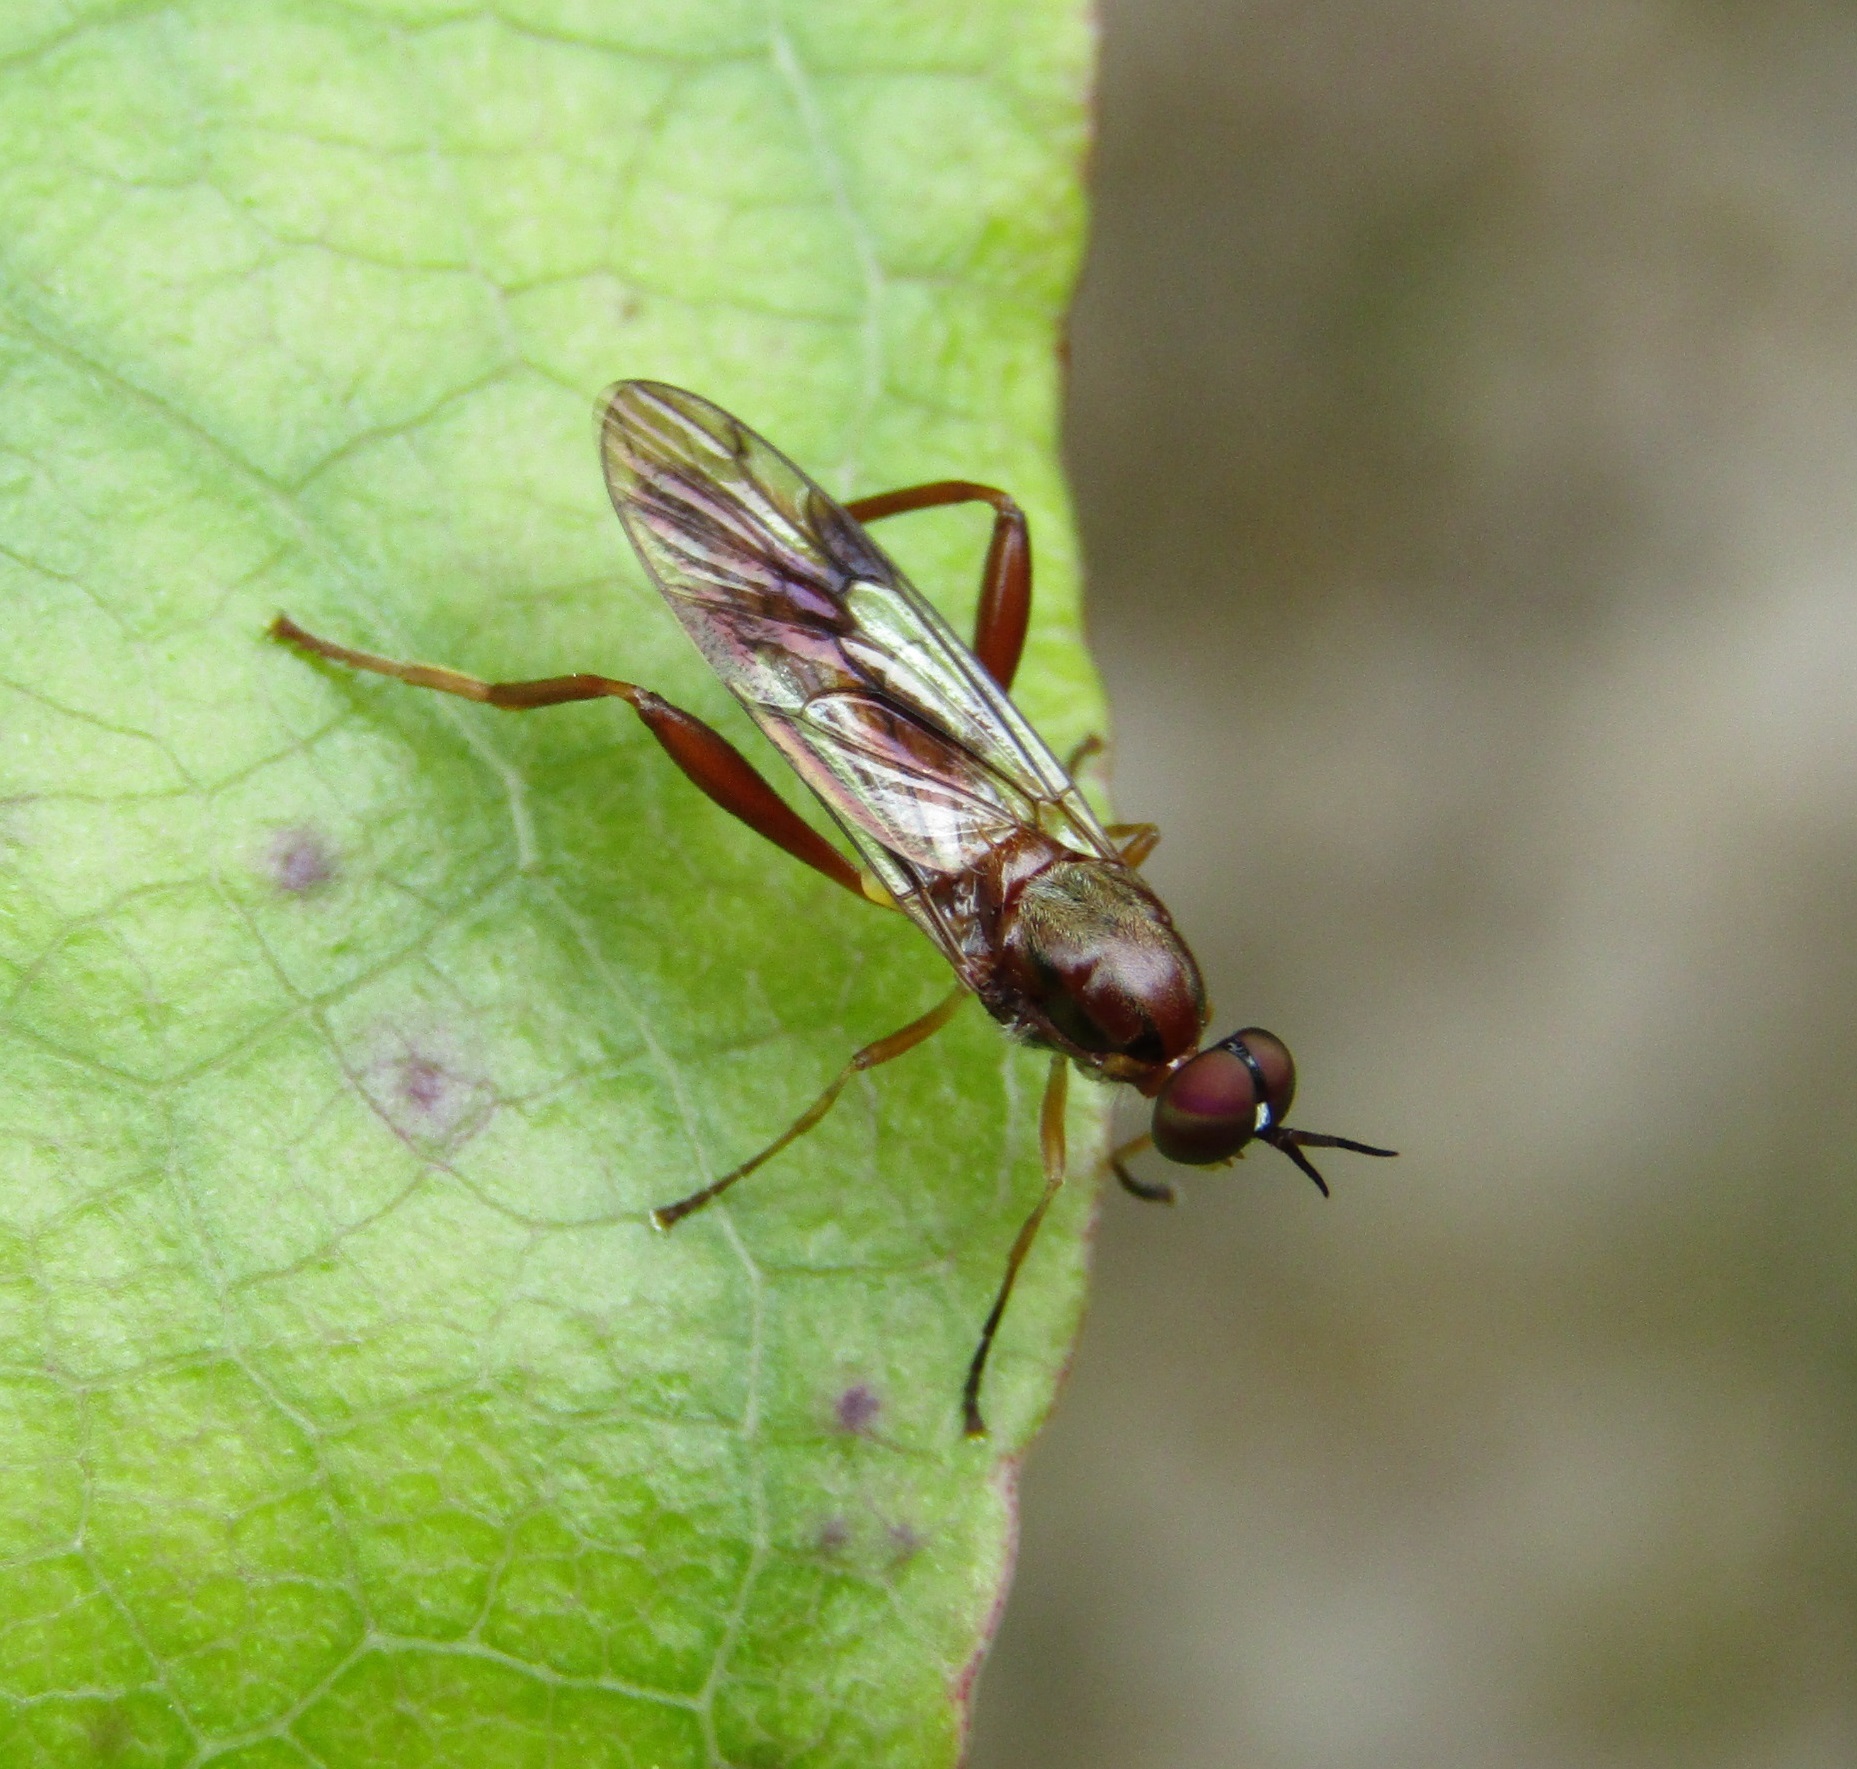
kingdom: Animalia
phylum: Arthropoda
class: Insecta
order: Diptera
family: Stratiomyidae
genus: Benhamyia
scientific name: Benhamyia straznitzkii
